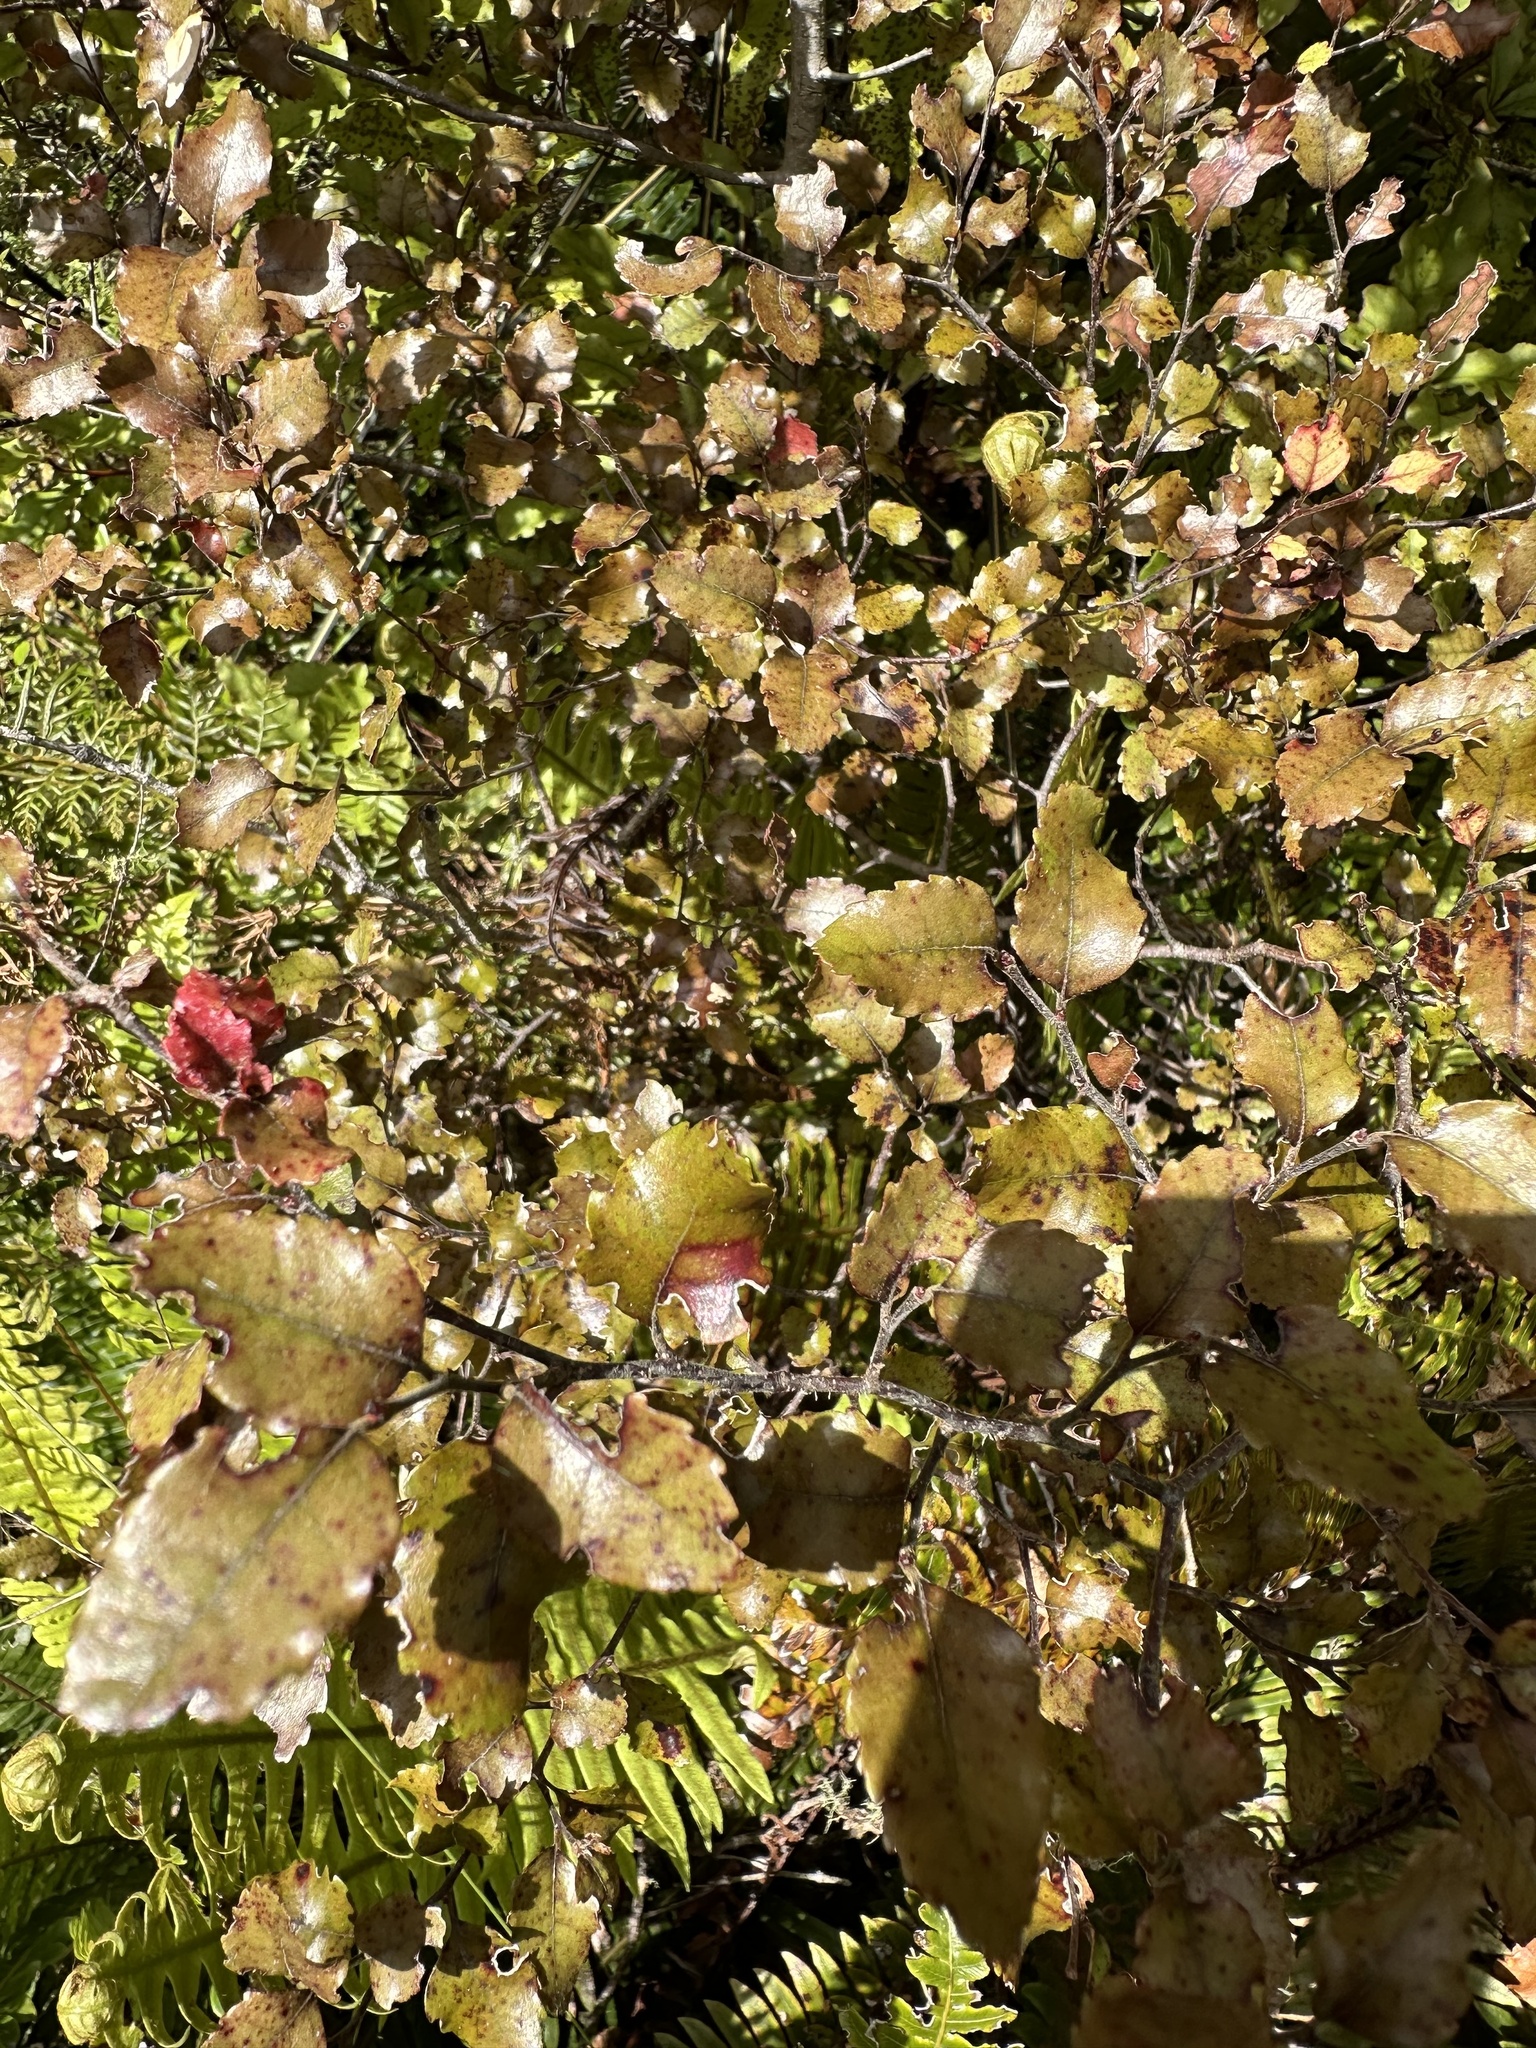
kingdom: Plantae
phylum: Tracheophyta
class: Magnoliopsida
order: Fagales
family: Nothofagaceae
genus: Nothofagus
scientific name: Nothofagus fusca
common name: Red beech
